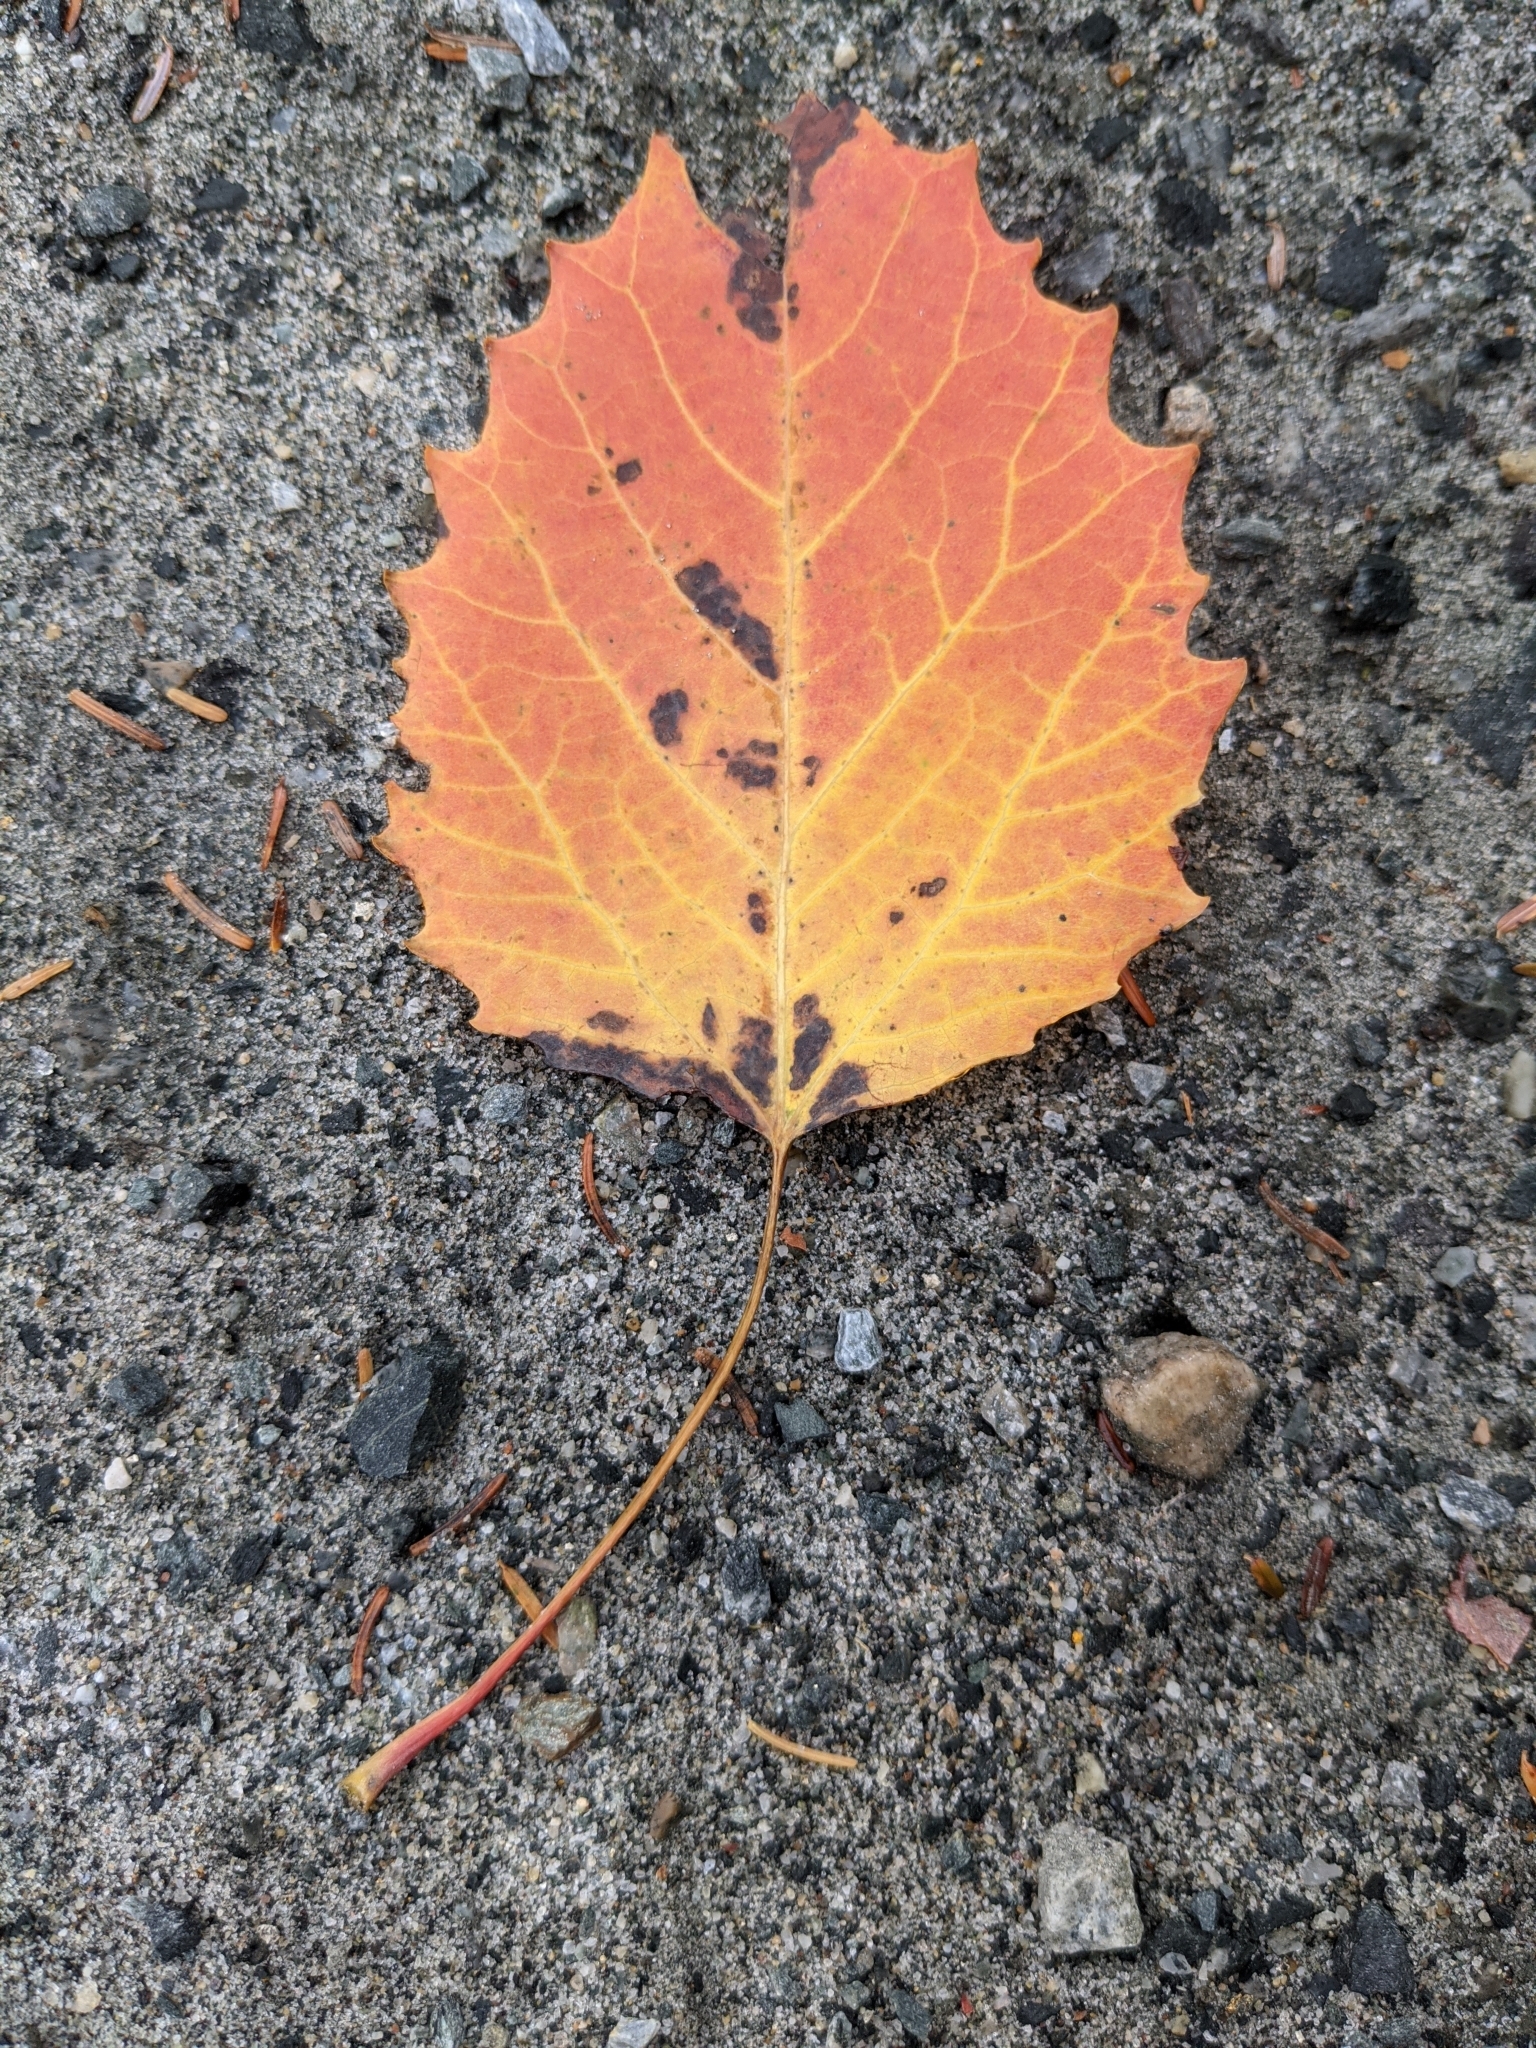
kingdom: Plantae
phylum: Tracheophyta
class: Magnoliopsida
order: Malpighiales
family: Salicaceae
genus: Populus
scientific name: Populus grandidentata
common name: Bigtooth aspen
